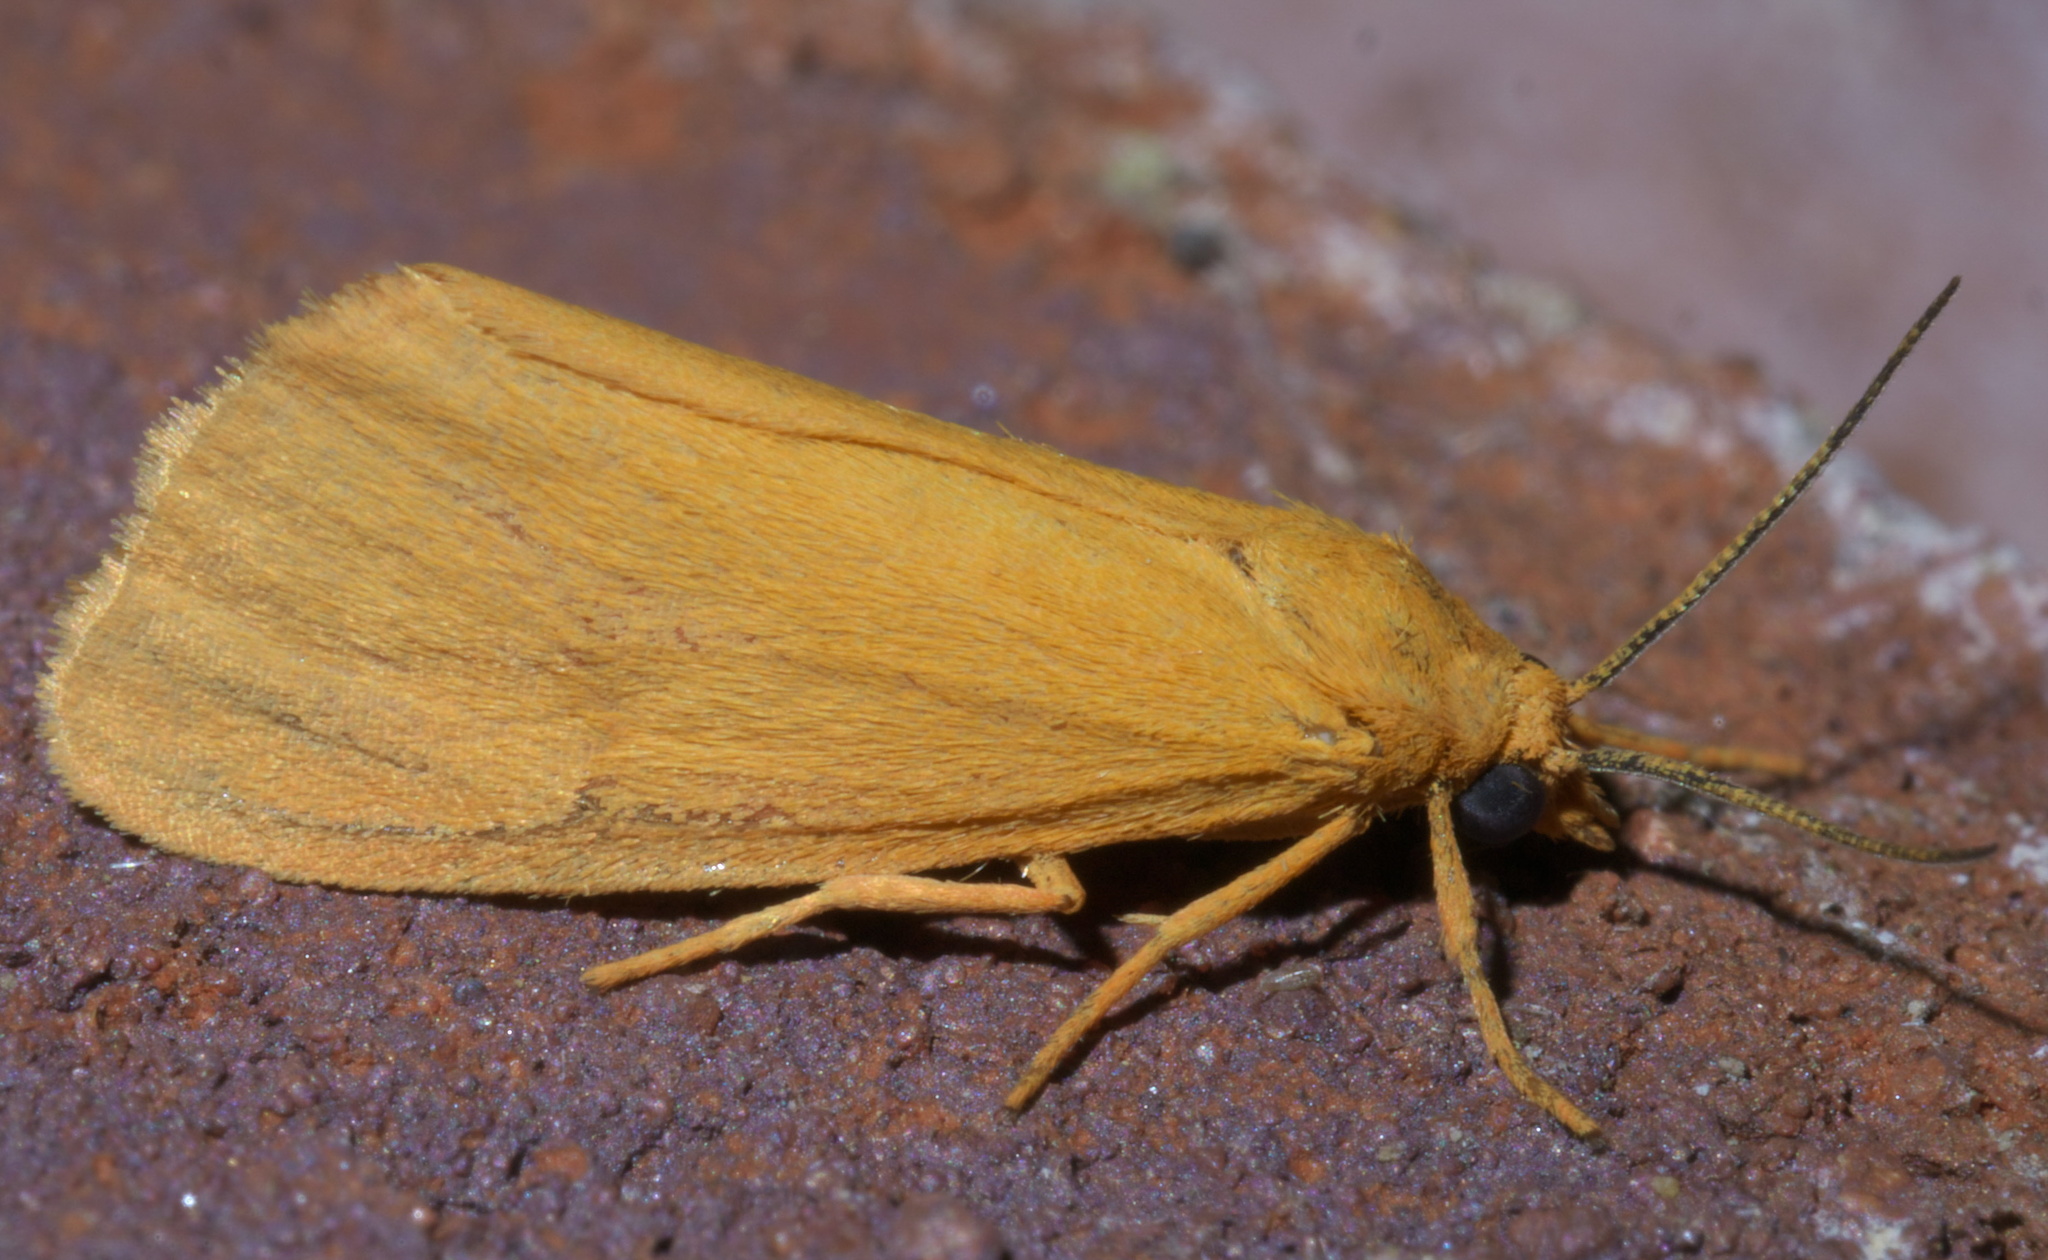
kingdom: Animalia
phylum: Arthropoda
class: Insecta
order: Lepidoptera
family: Erebidae
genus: Virbia
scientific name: Virbia aurantiaca
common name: Orange virbia moth
